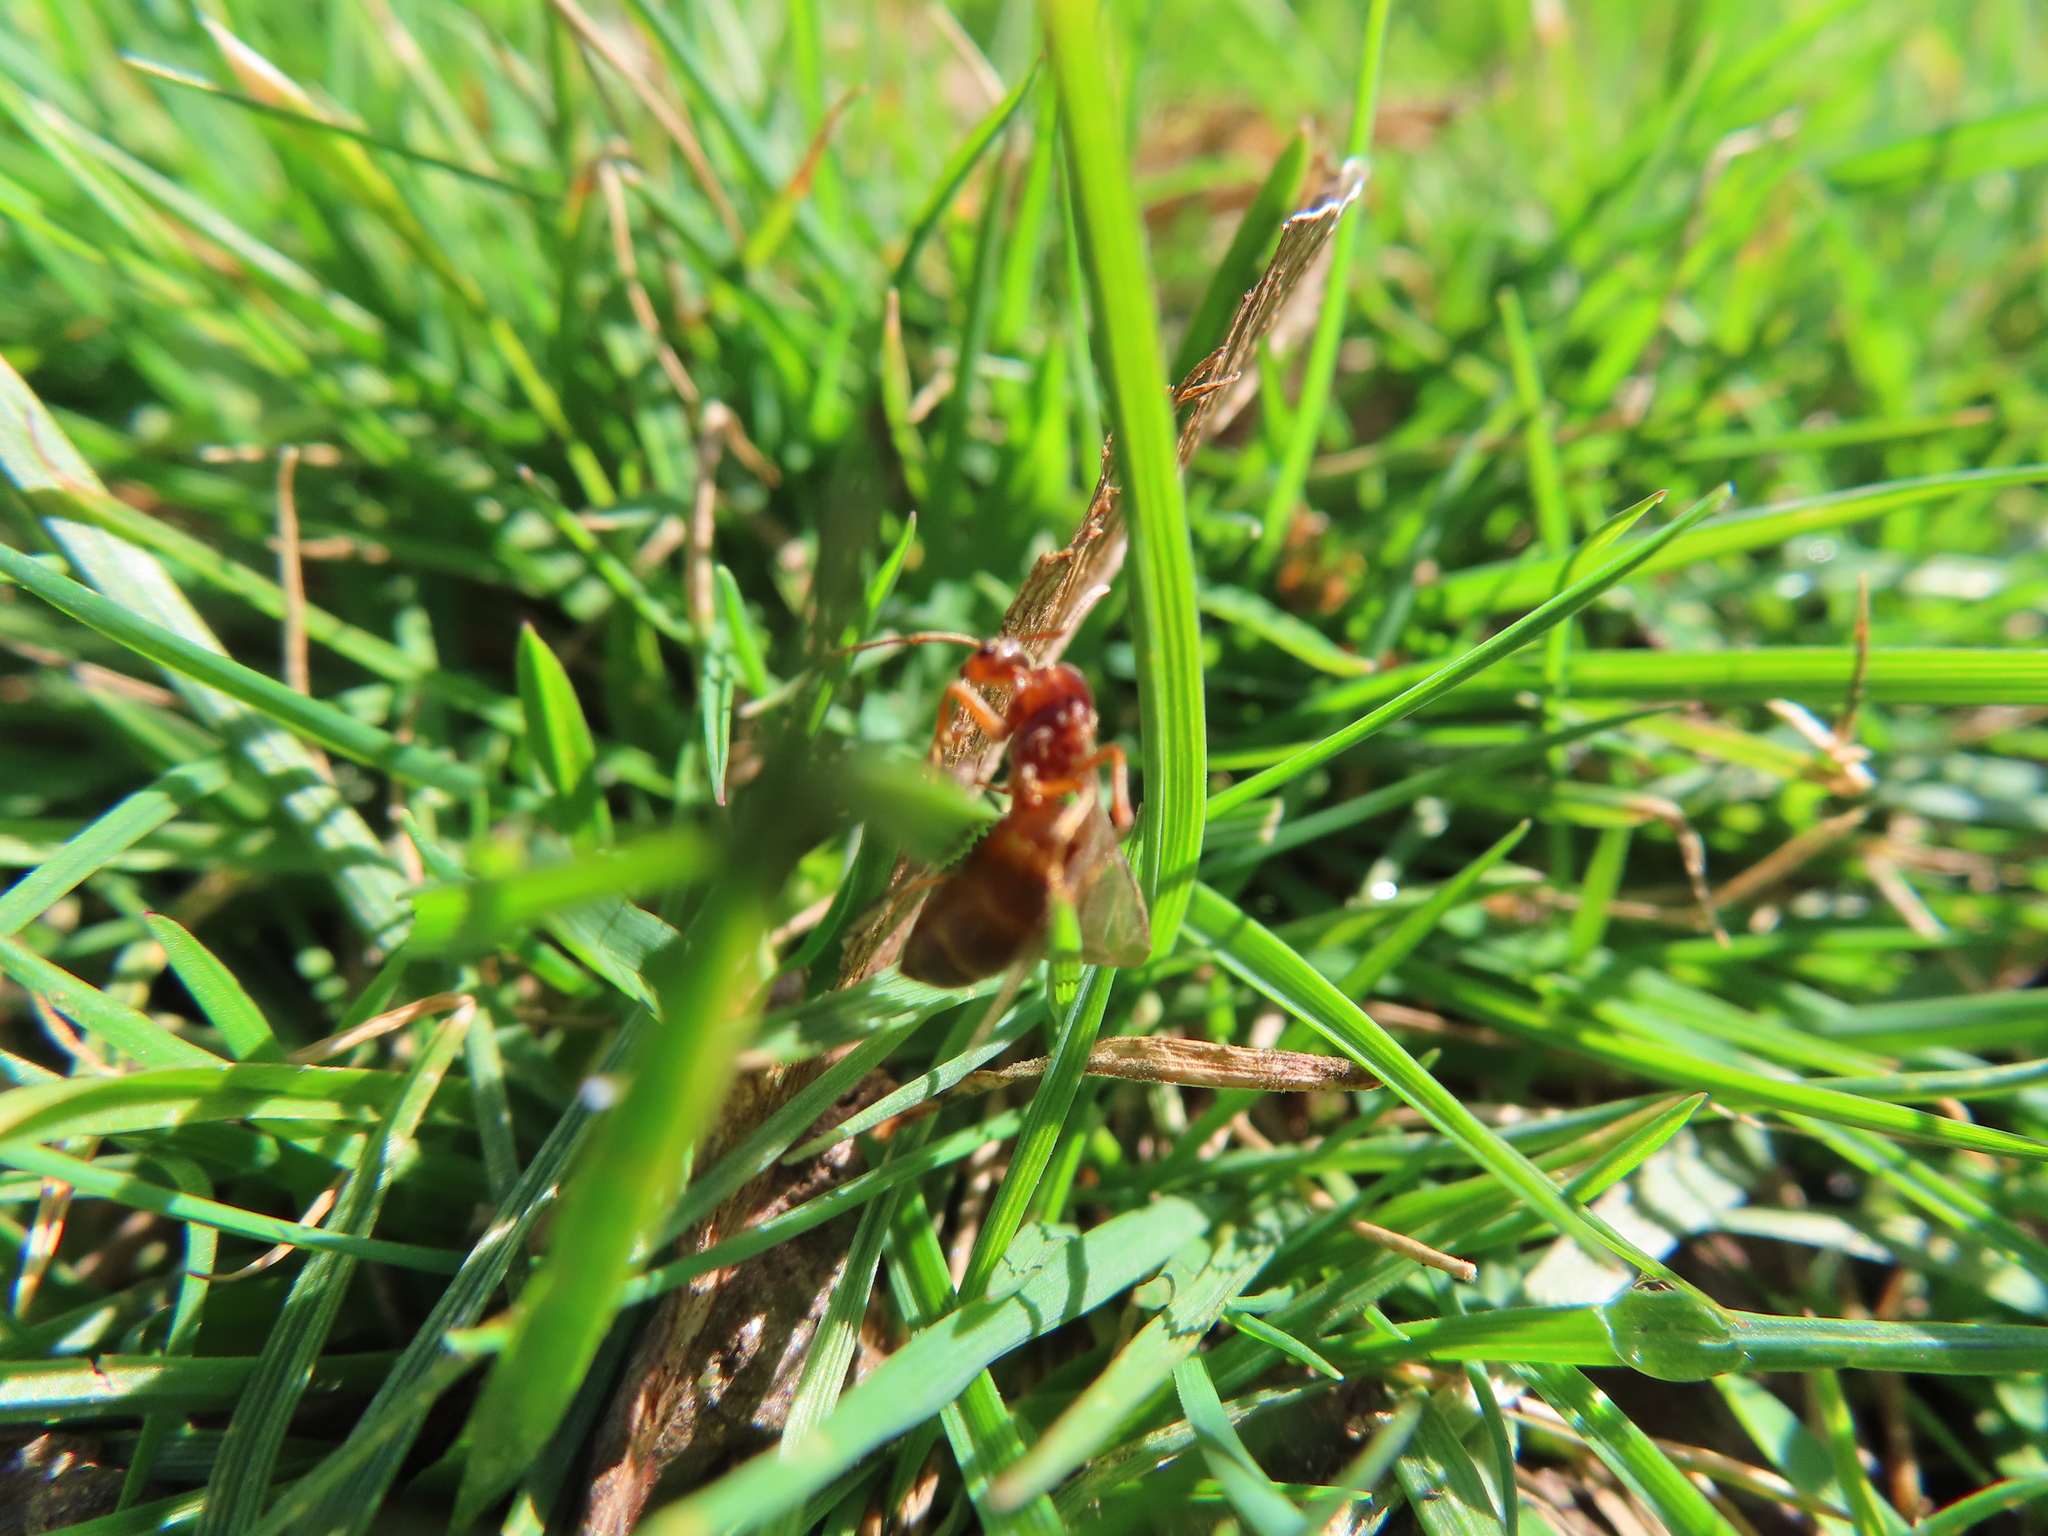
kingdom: Animalia
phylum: Arthropoda
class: Insecta
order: Hymenoptera
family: Formicidae
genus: Prenolepis
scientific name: Prenolepis imparis
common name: Small honey ant
